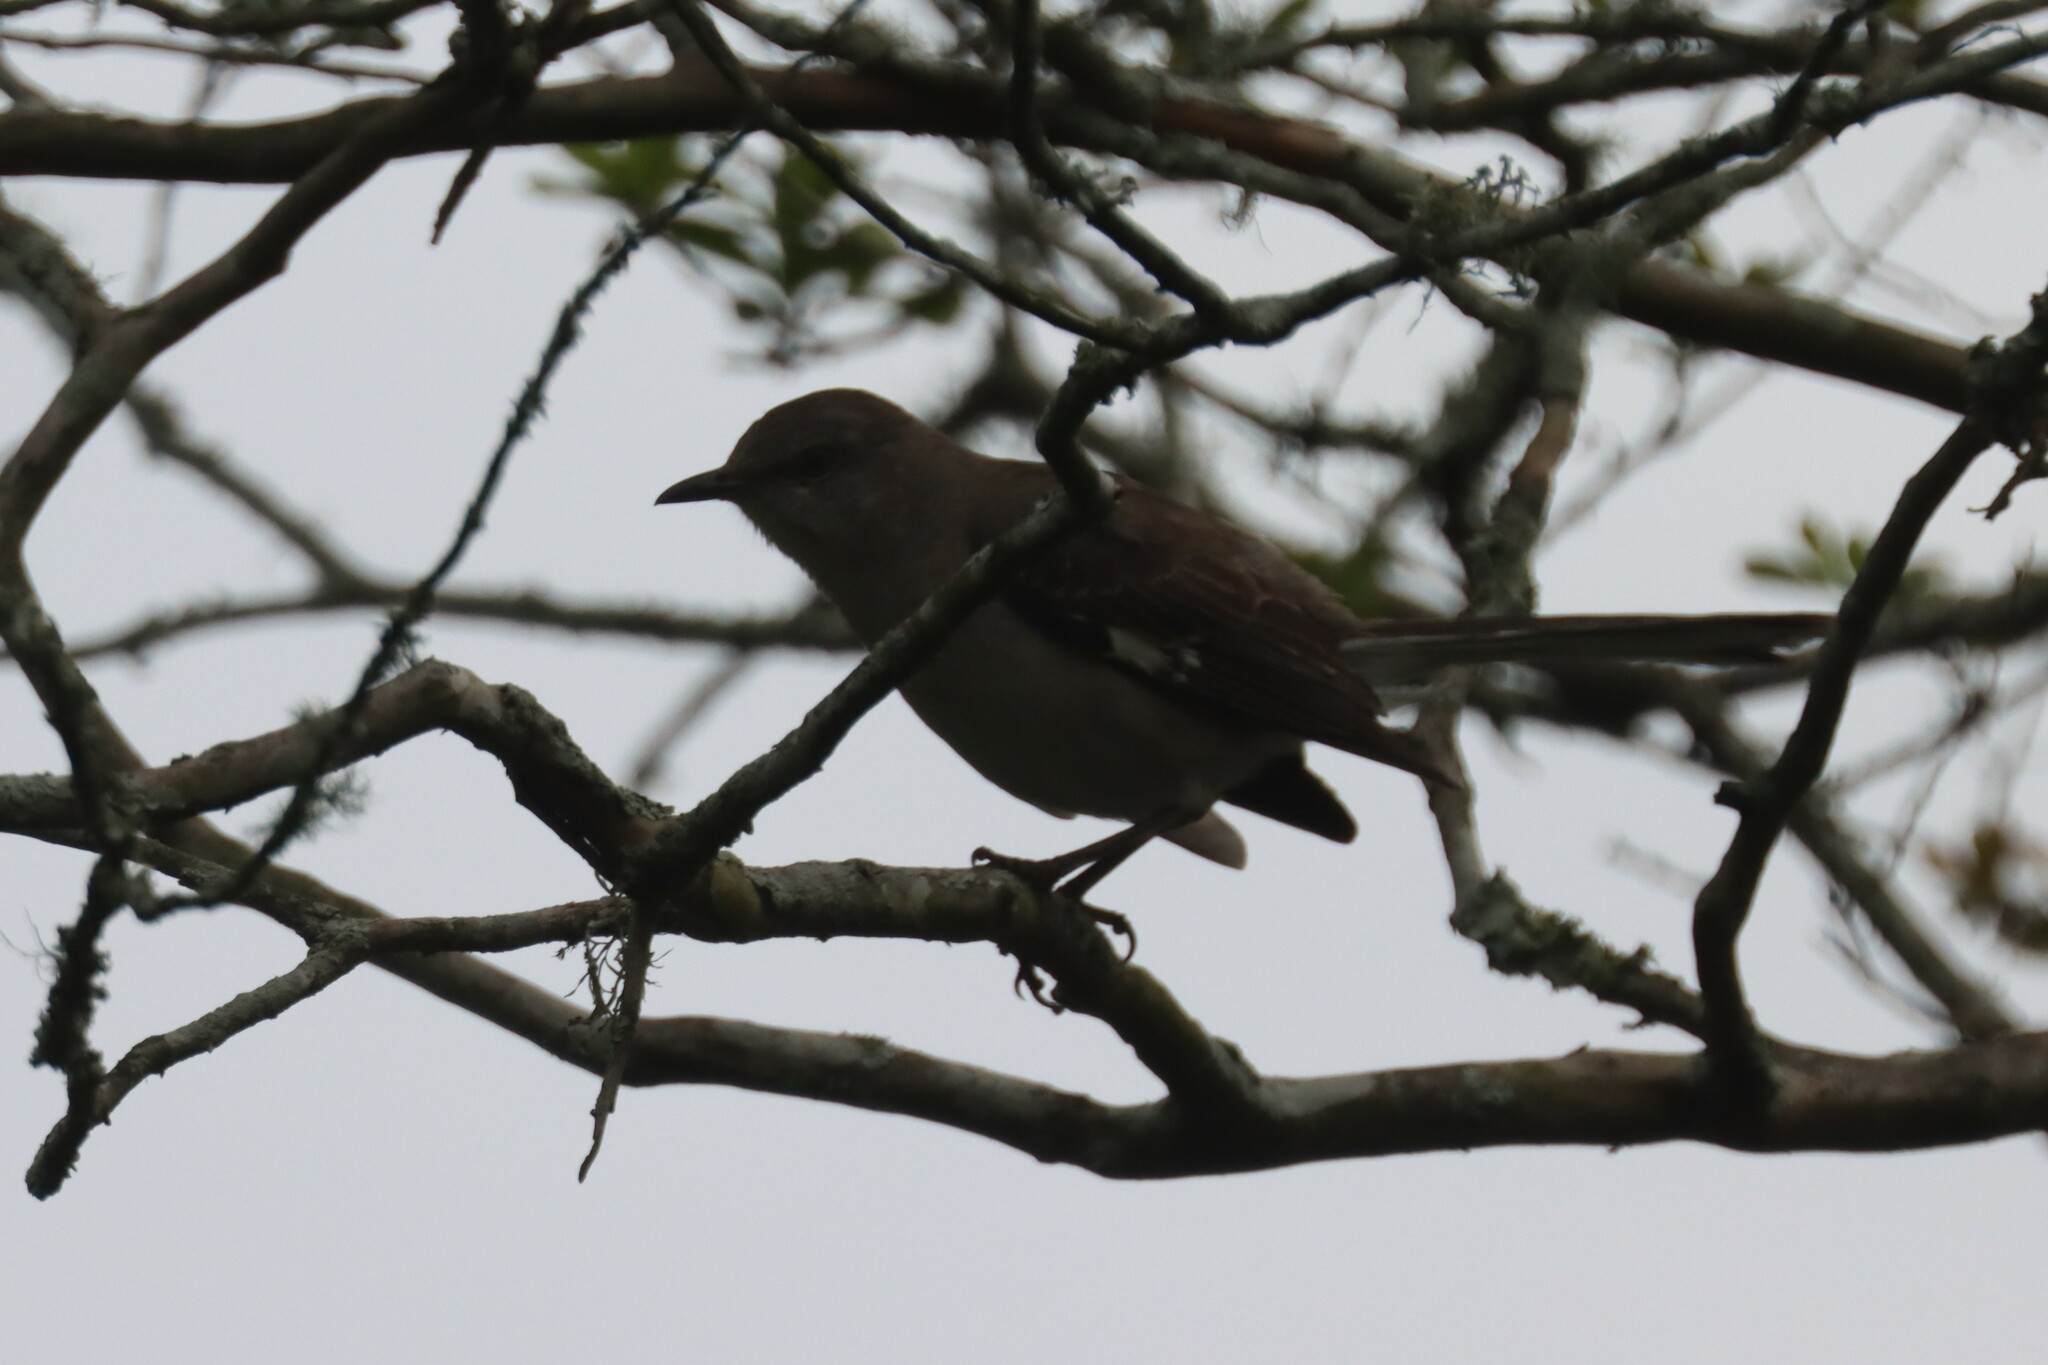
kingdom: Animalia
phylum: Chordata
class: Aves
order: Passeriformes
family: Mimidae
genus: Mimus
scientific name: Mimus polyglottos
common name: Northern mockingbird
